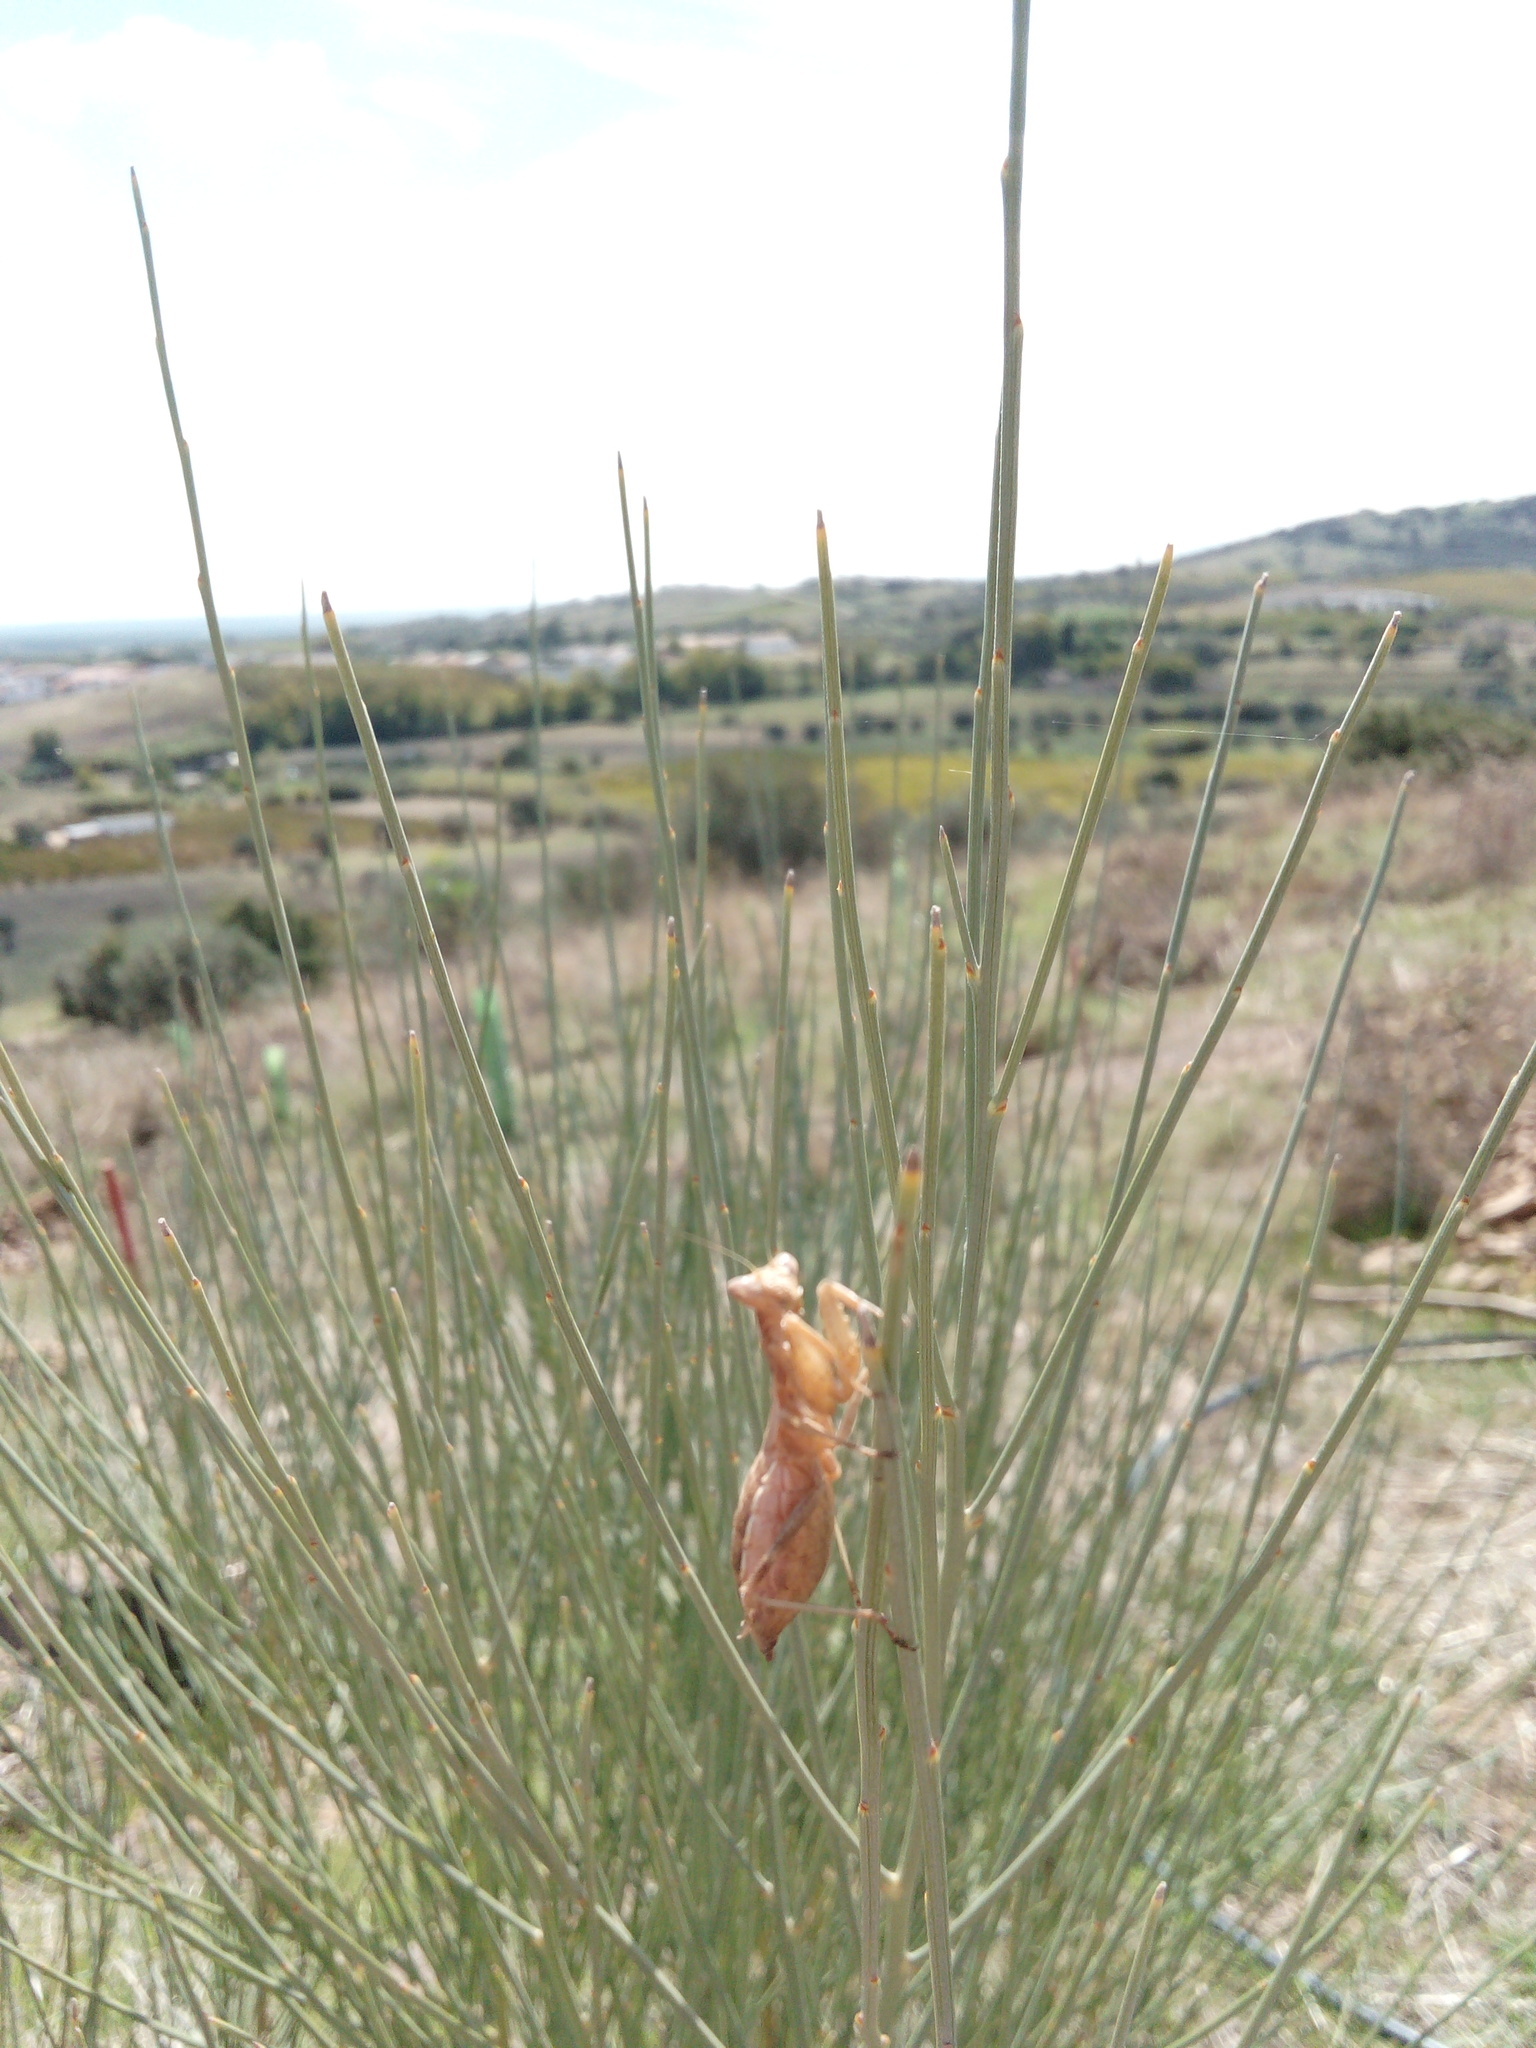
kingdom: Animalia
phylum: Arthropoda
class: Insecta
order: Mantodea
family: Amelidae
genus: Ameles
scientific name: Ameles spallanzania
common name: European dwarf mantis
